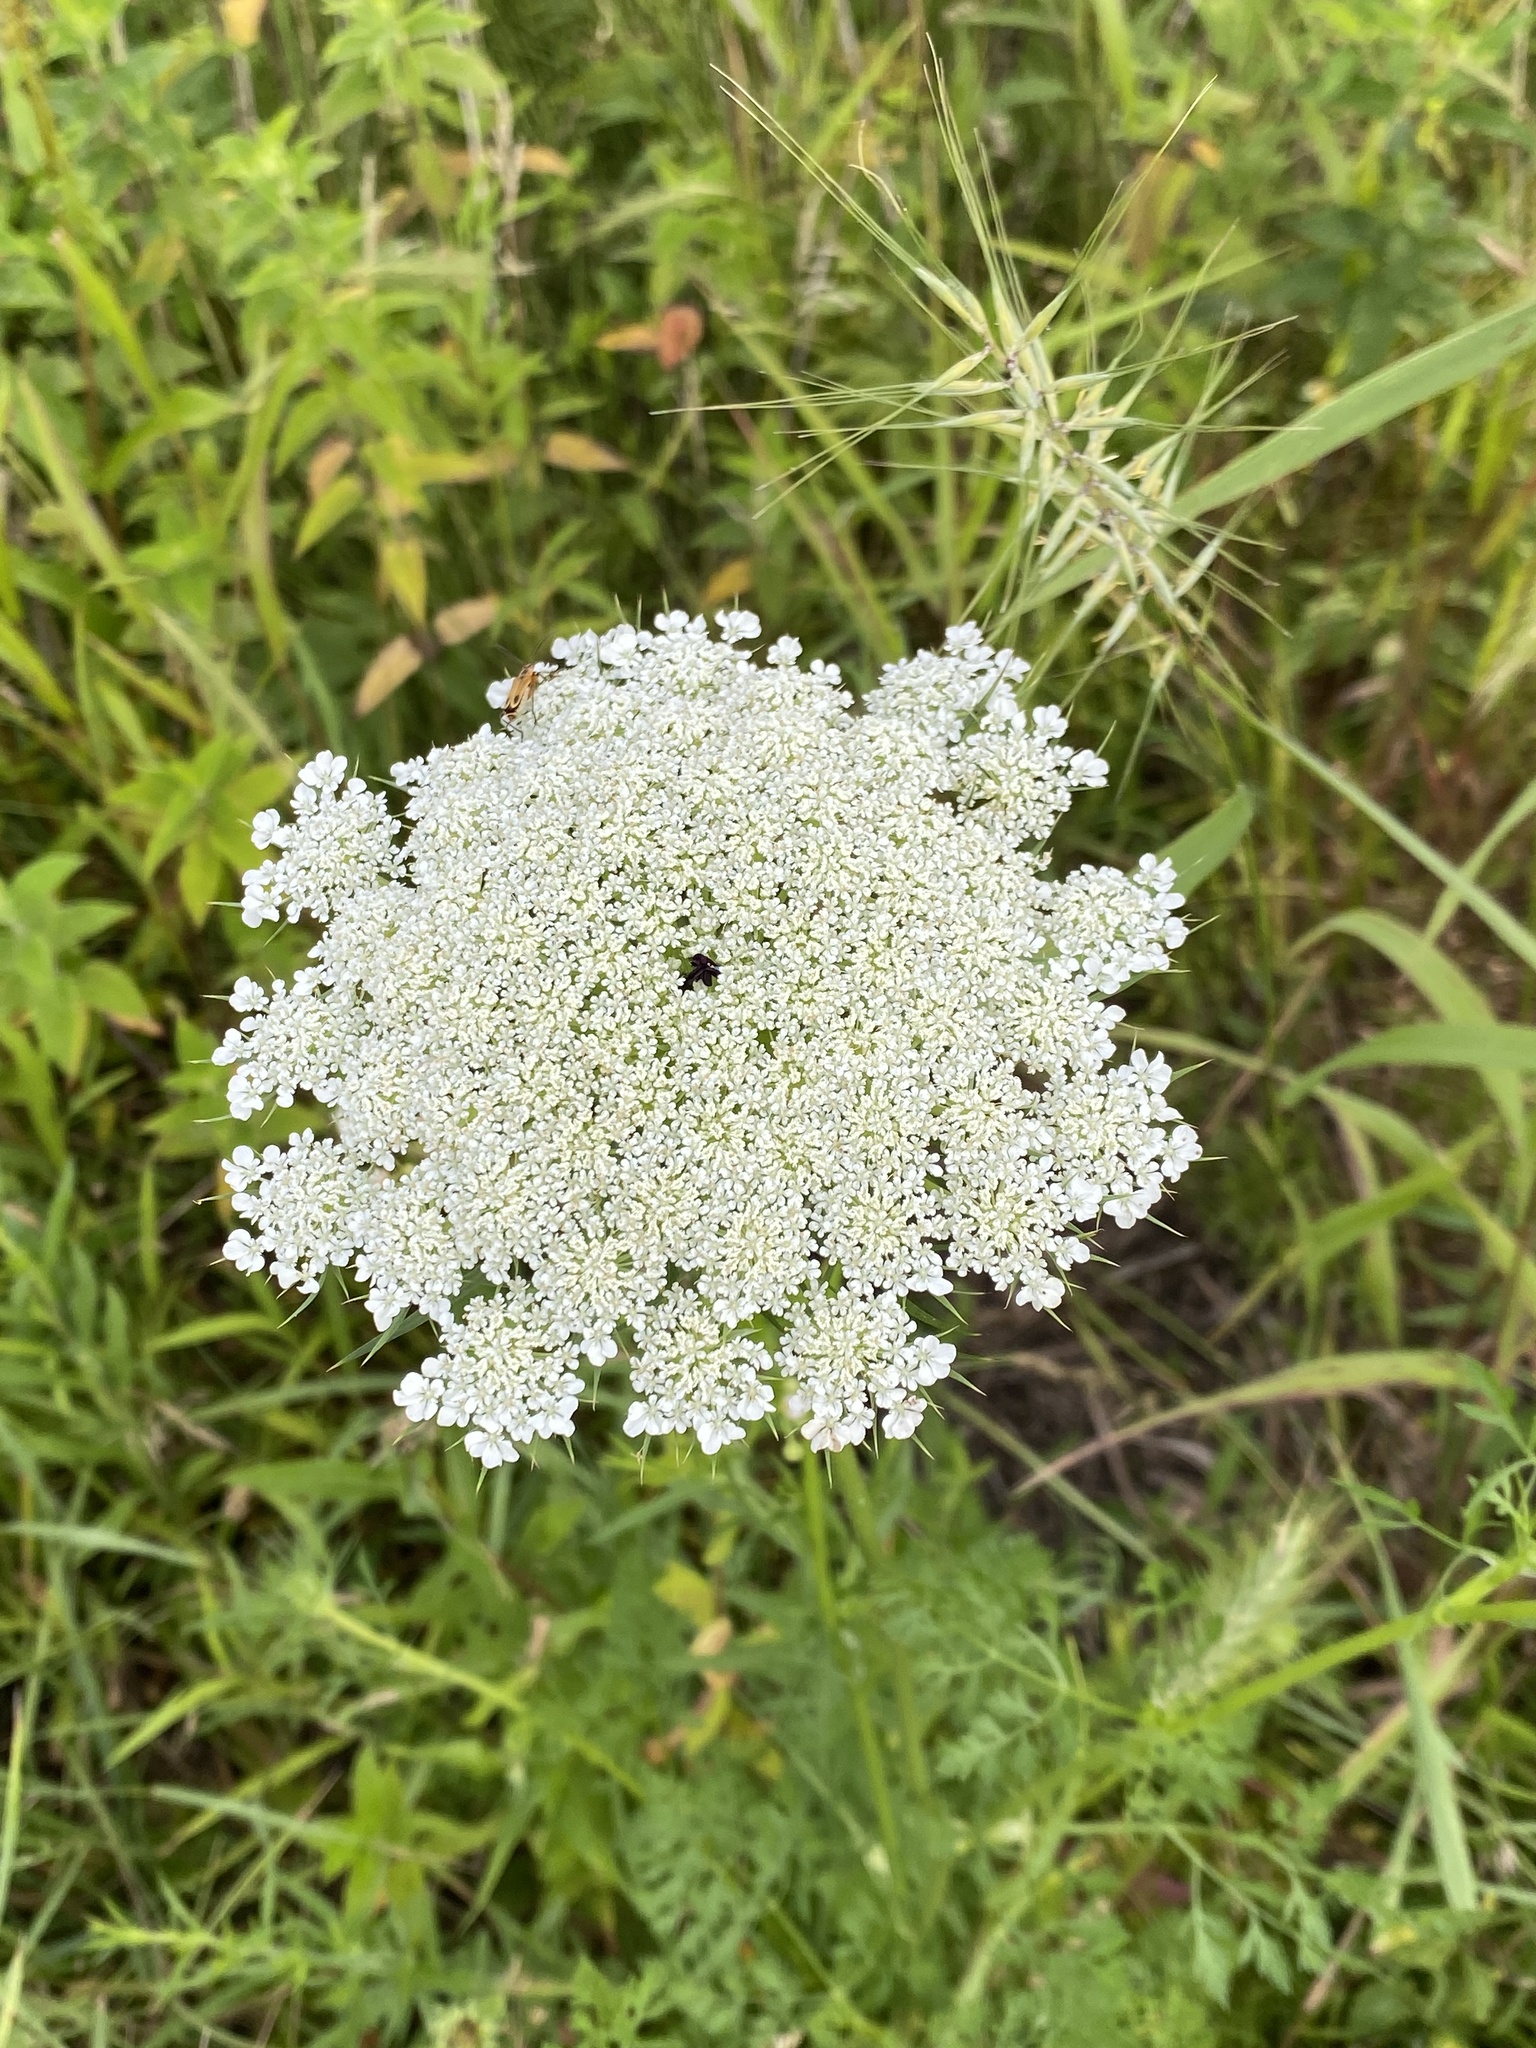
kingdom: Plantae
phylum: Tracheophyta
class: Magnoliopsida
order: Apiales
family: Apiaceae
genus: Daucus
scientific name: Daucus carota
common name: Wild carrot
